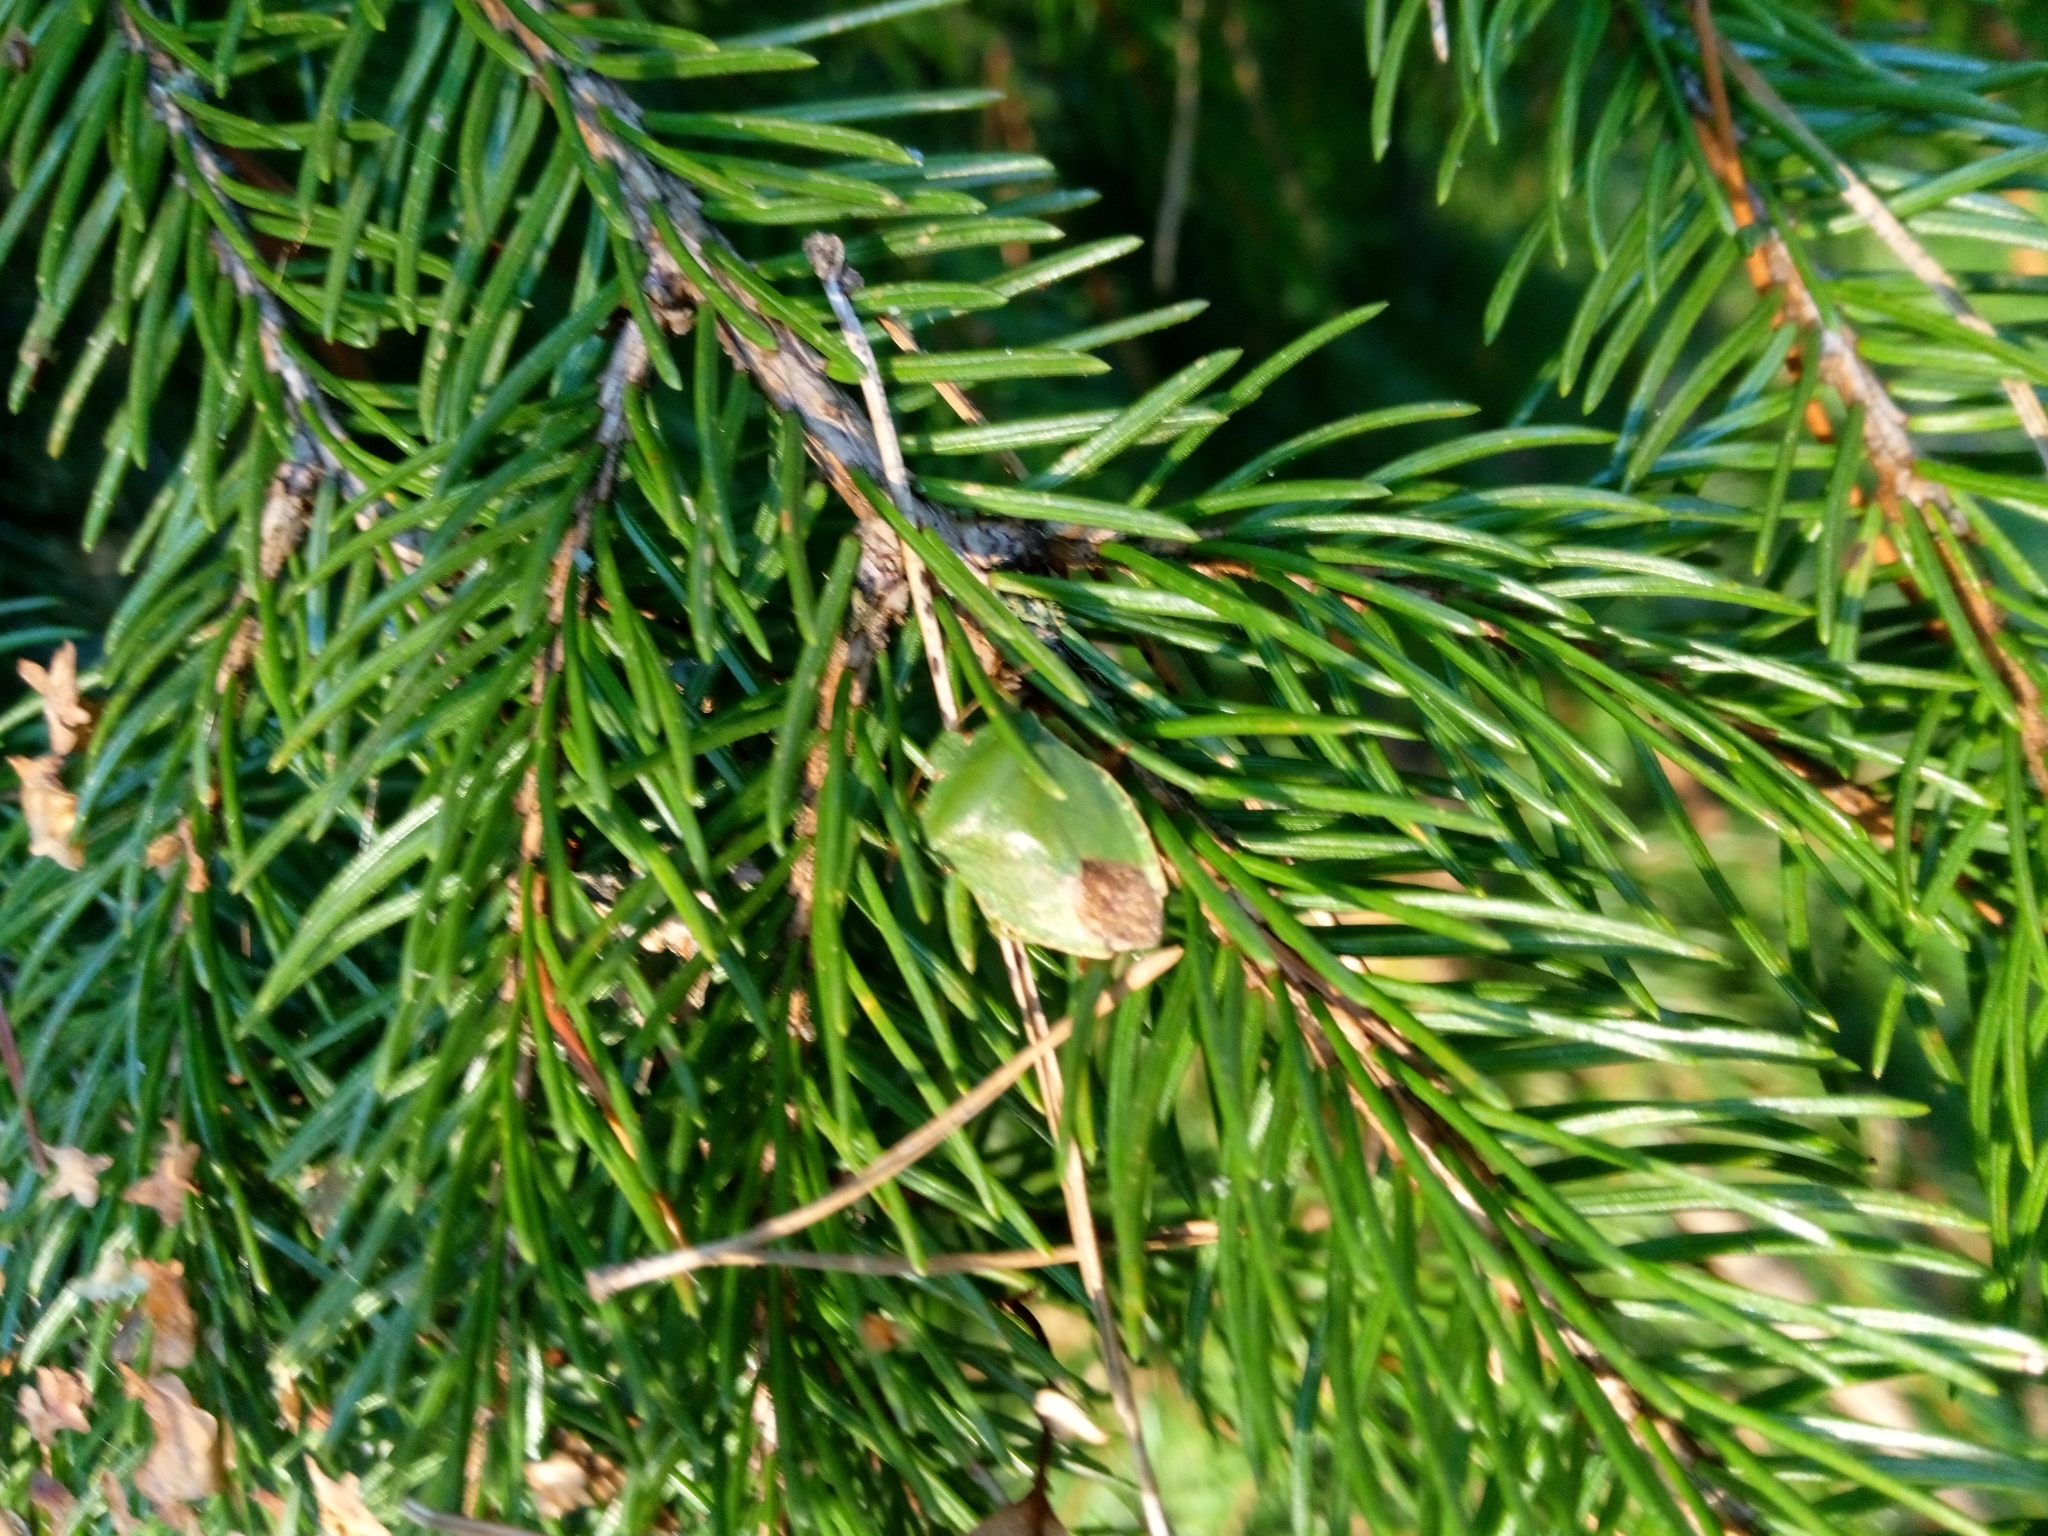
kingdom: Animalia
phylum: Arthropoda
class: Insecta
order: Hemiptera
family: Pentatomidae
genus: Palomena
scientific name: Palomena prasina
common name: Green shieldbug
